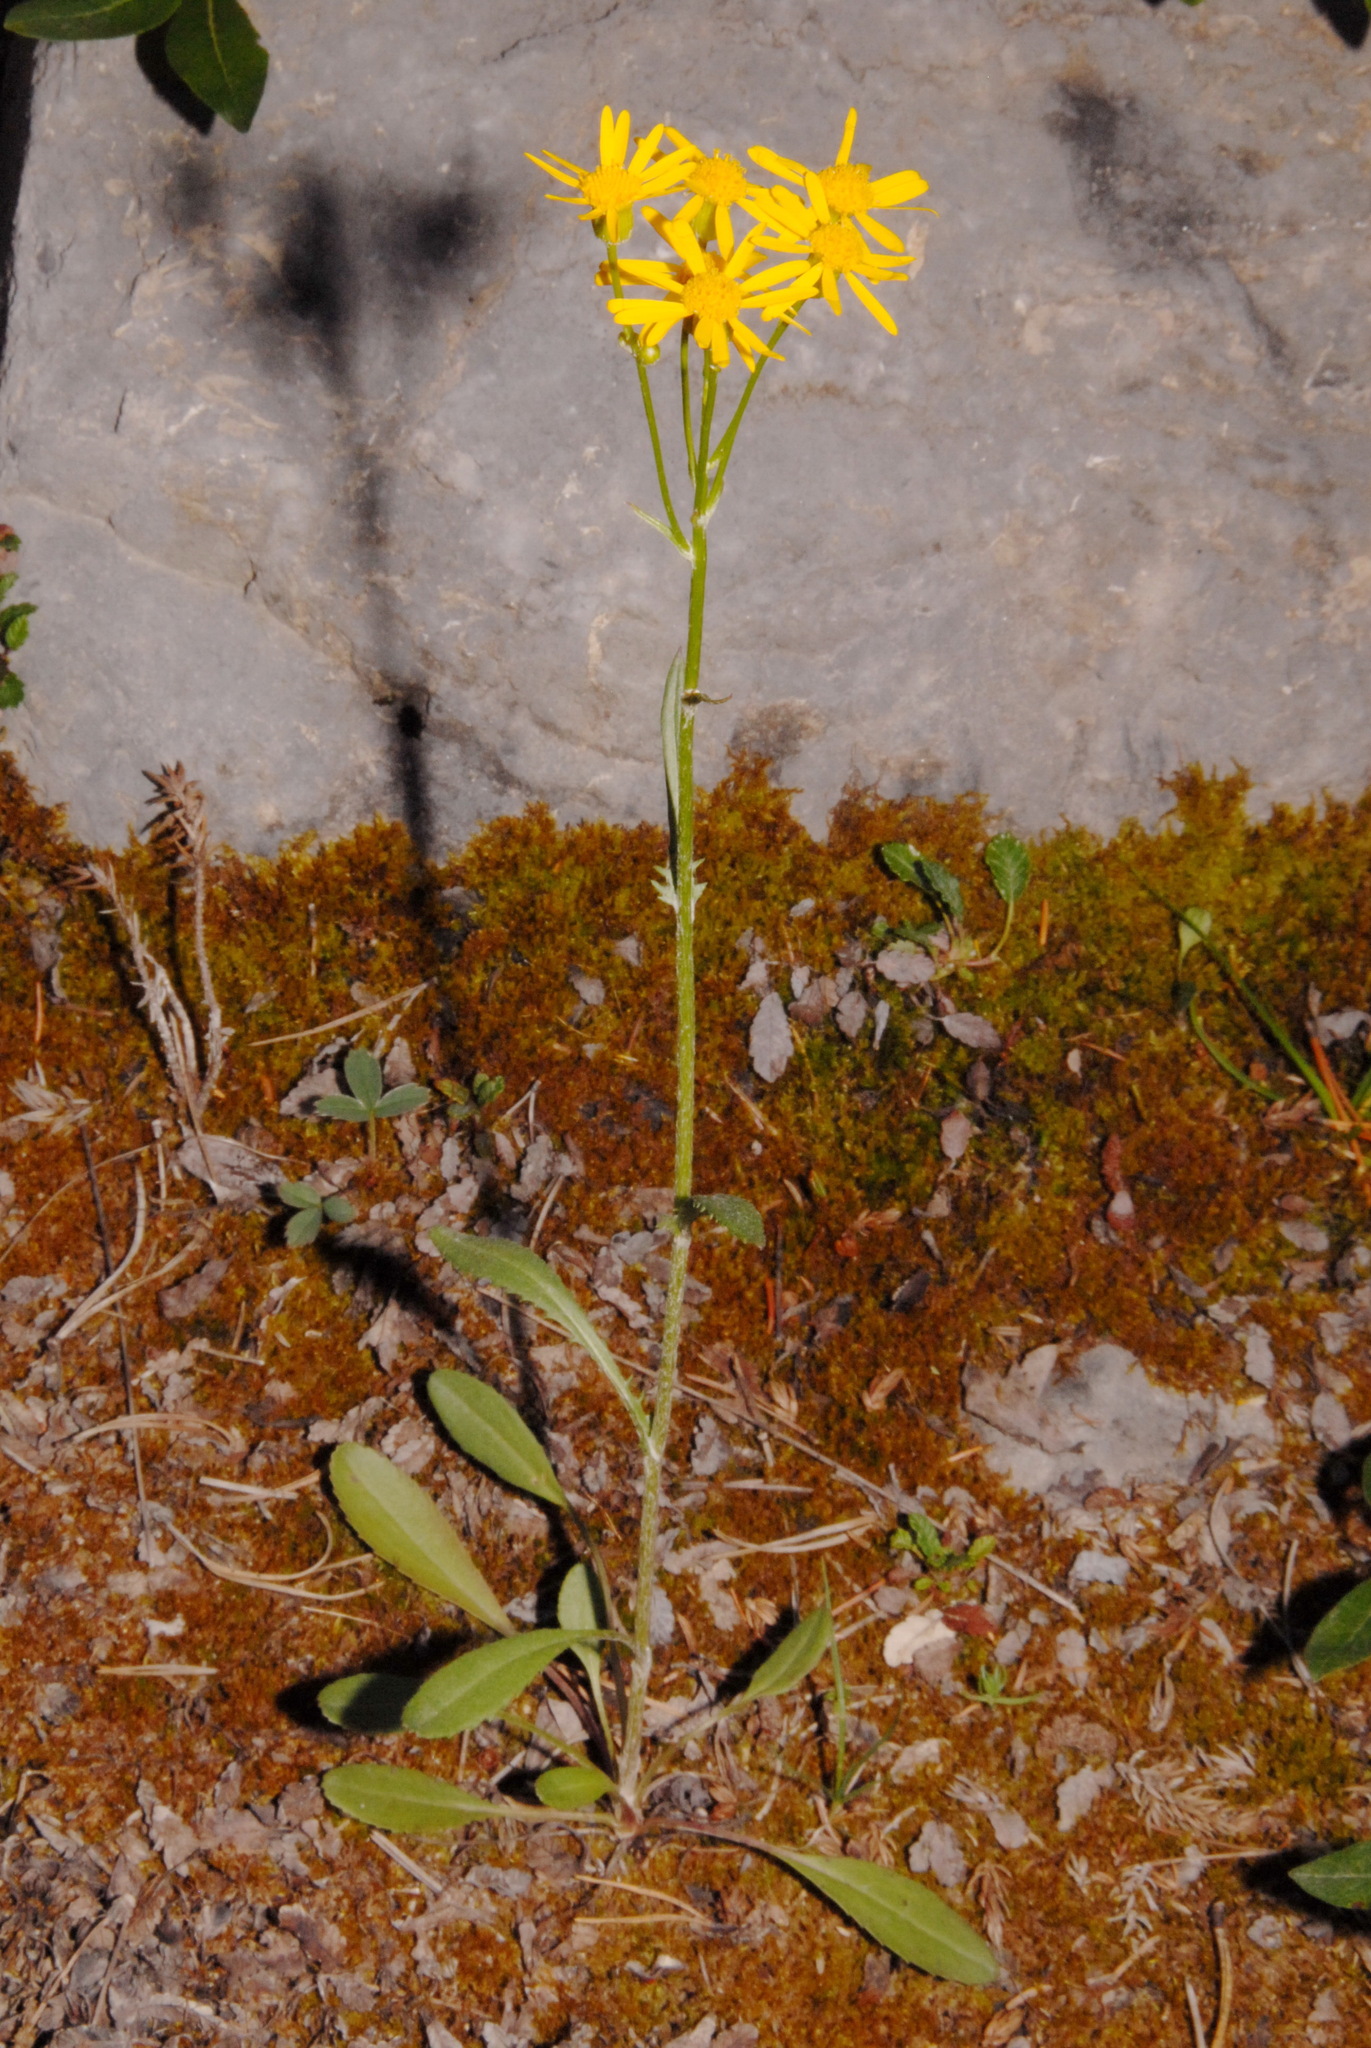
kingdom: Plantae
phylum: Tracheophyta
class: Magnoliopsida
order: Asterales
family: Asteraceae
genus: Packera
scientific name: Packera paupercula
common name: Balsam groundsel
